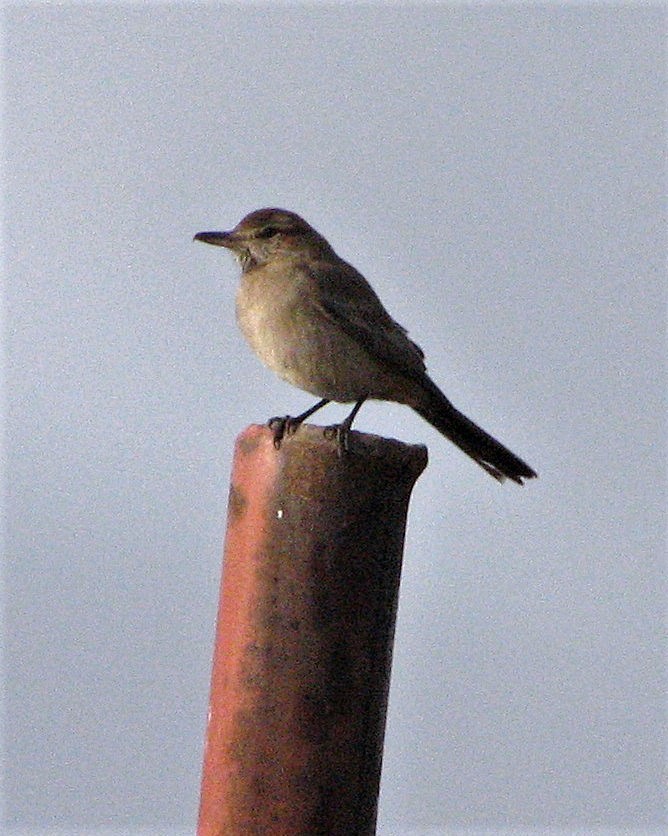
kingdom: Animalia
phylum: Chordata
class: Aves
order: Passeriformes
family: Tyrannidae
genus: Agriornis
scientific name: Agriornis micropterus
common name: Grey-bellied shrike-tyrant
